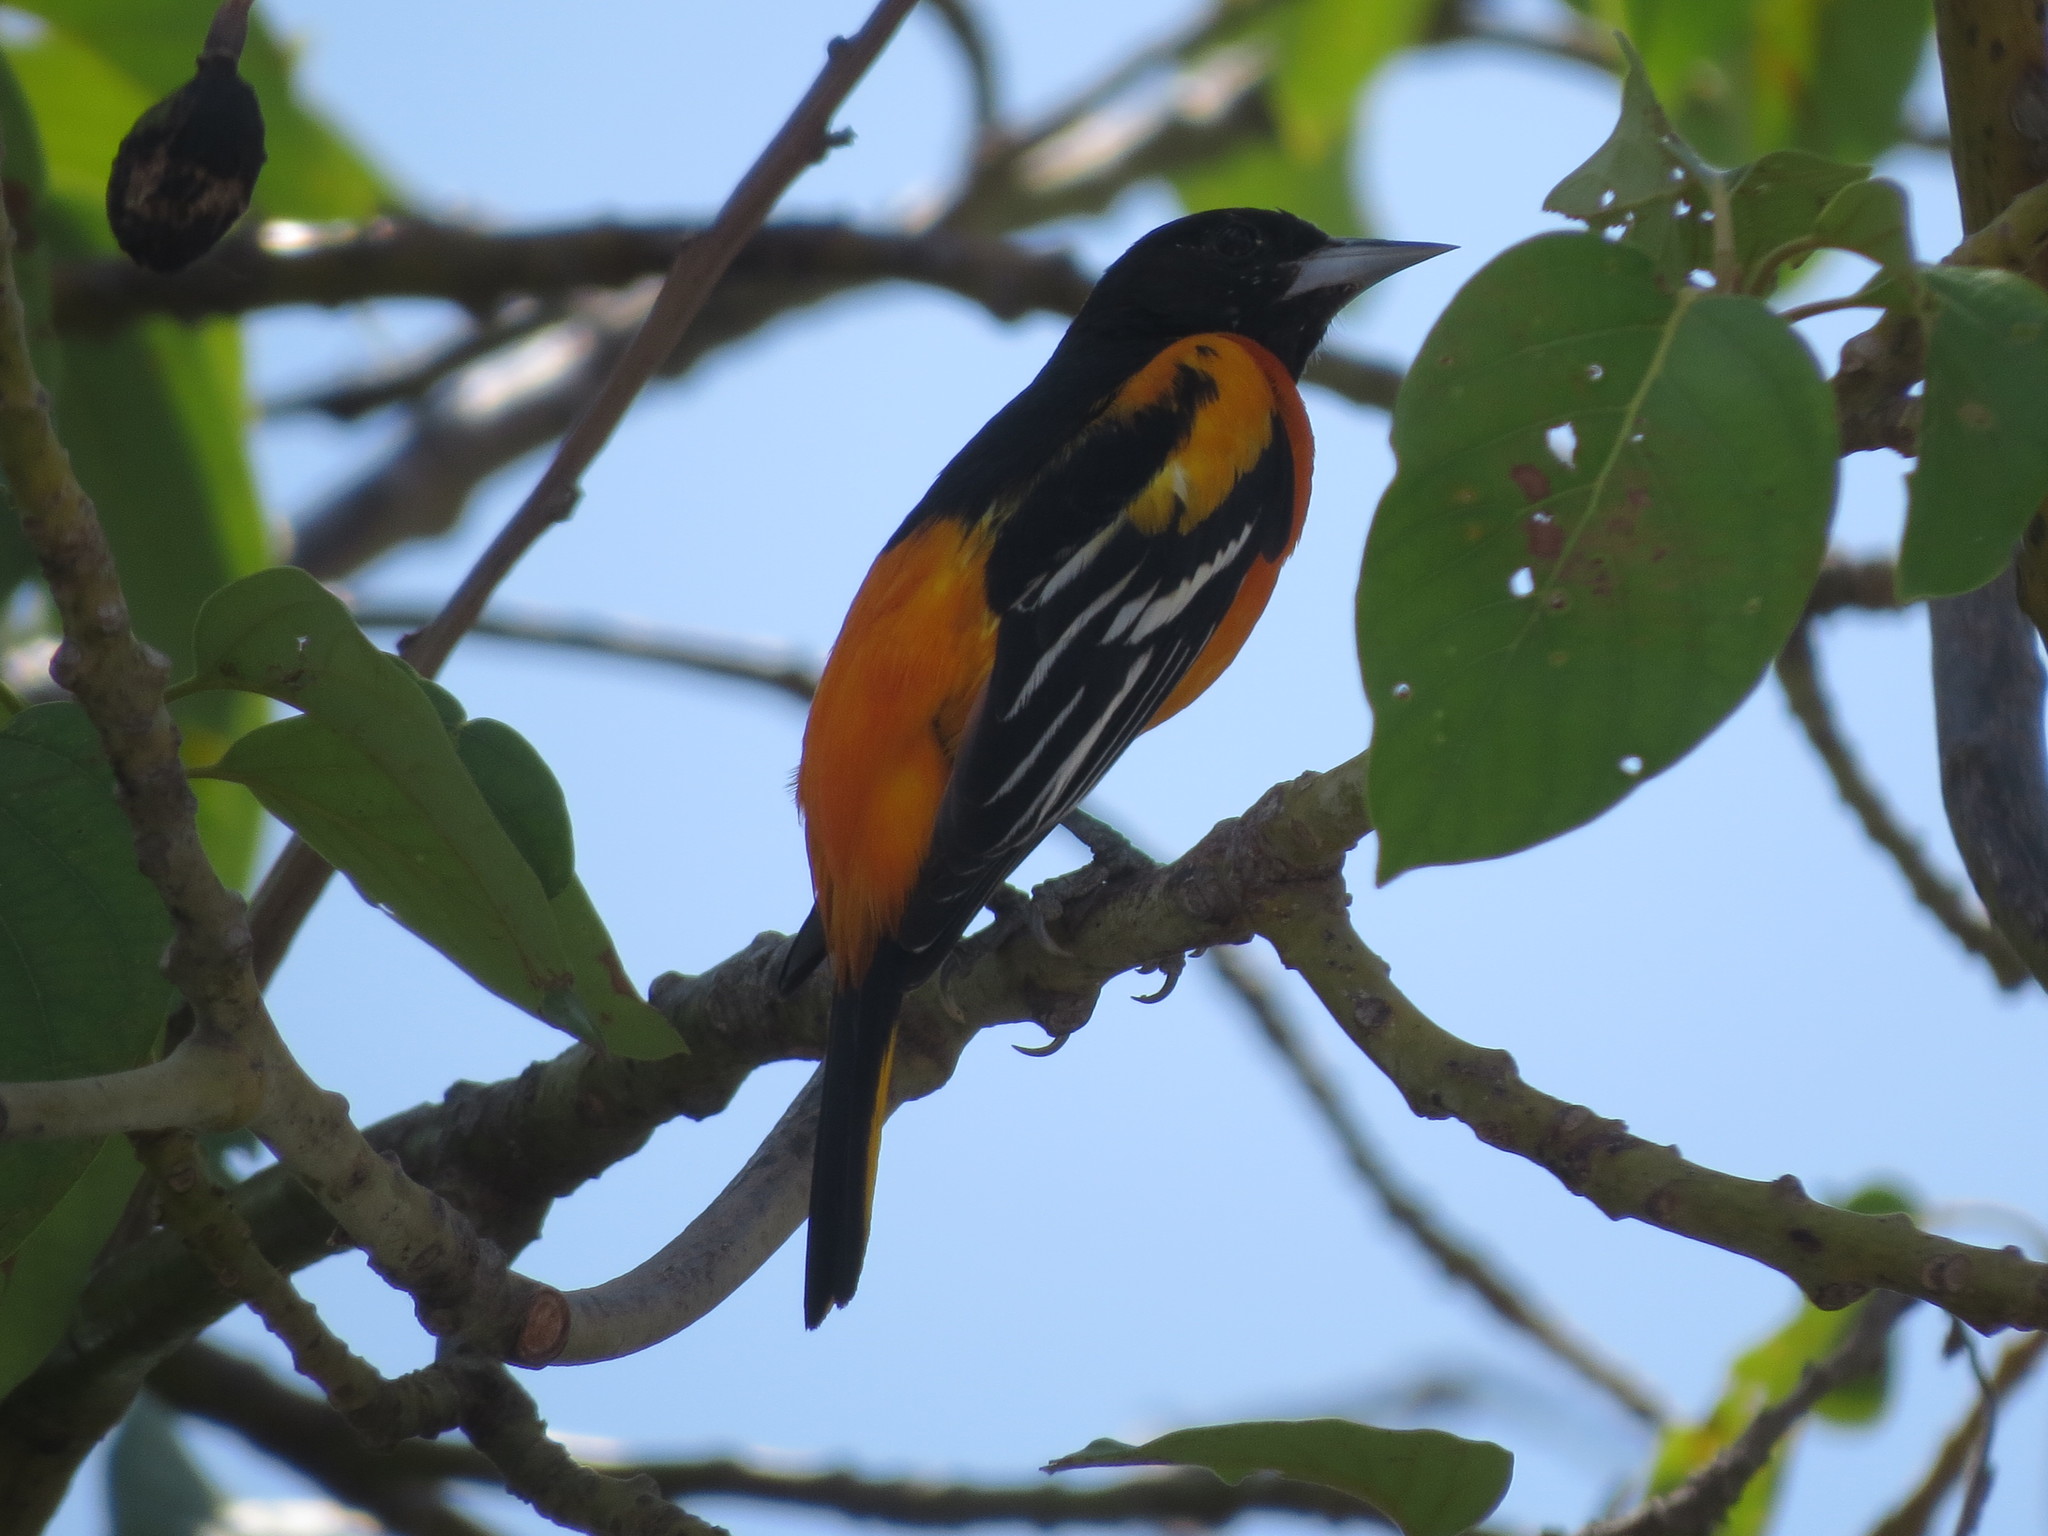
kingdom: Animalia
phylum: Chordata
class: Aves
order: Passeriformes
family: Icteridae
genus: Icterus
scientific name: Icterus galbula
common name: Baltimore oriole
